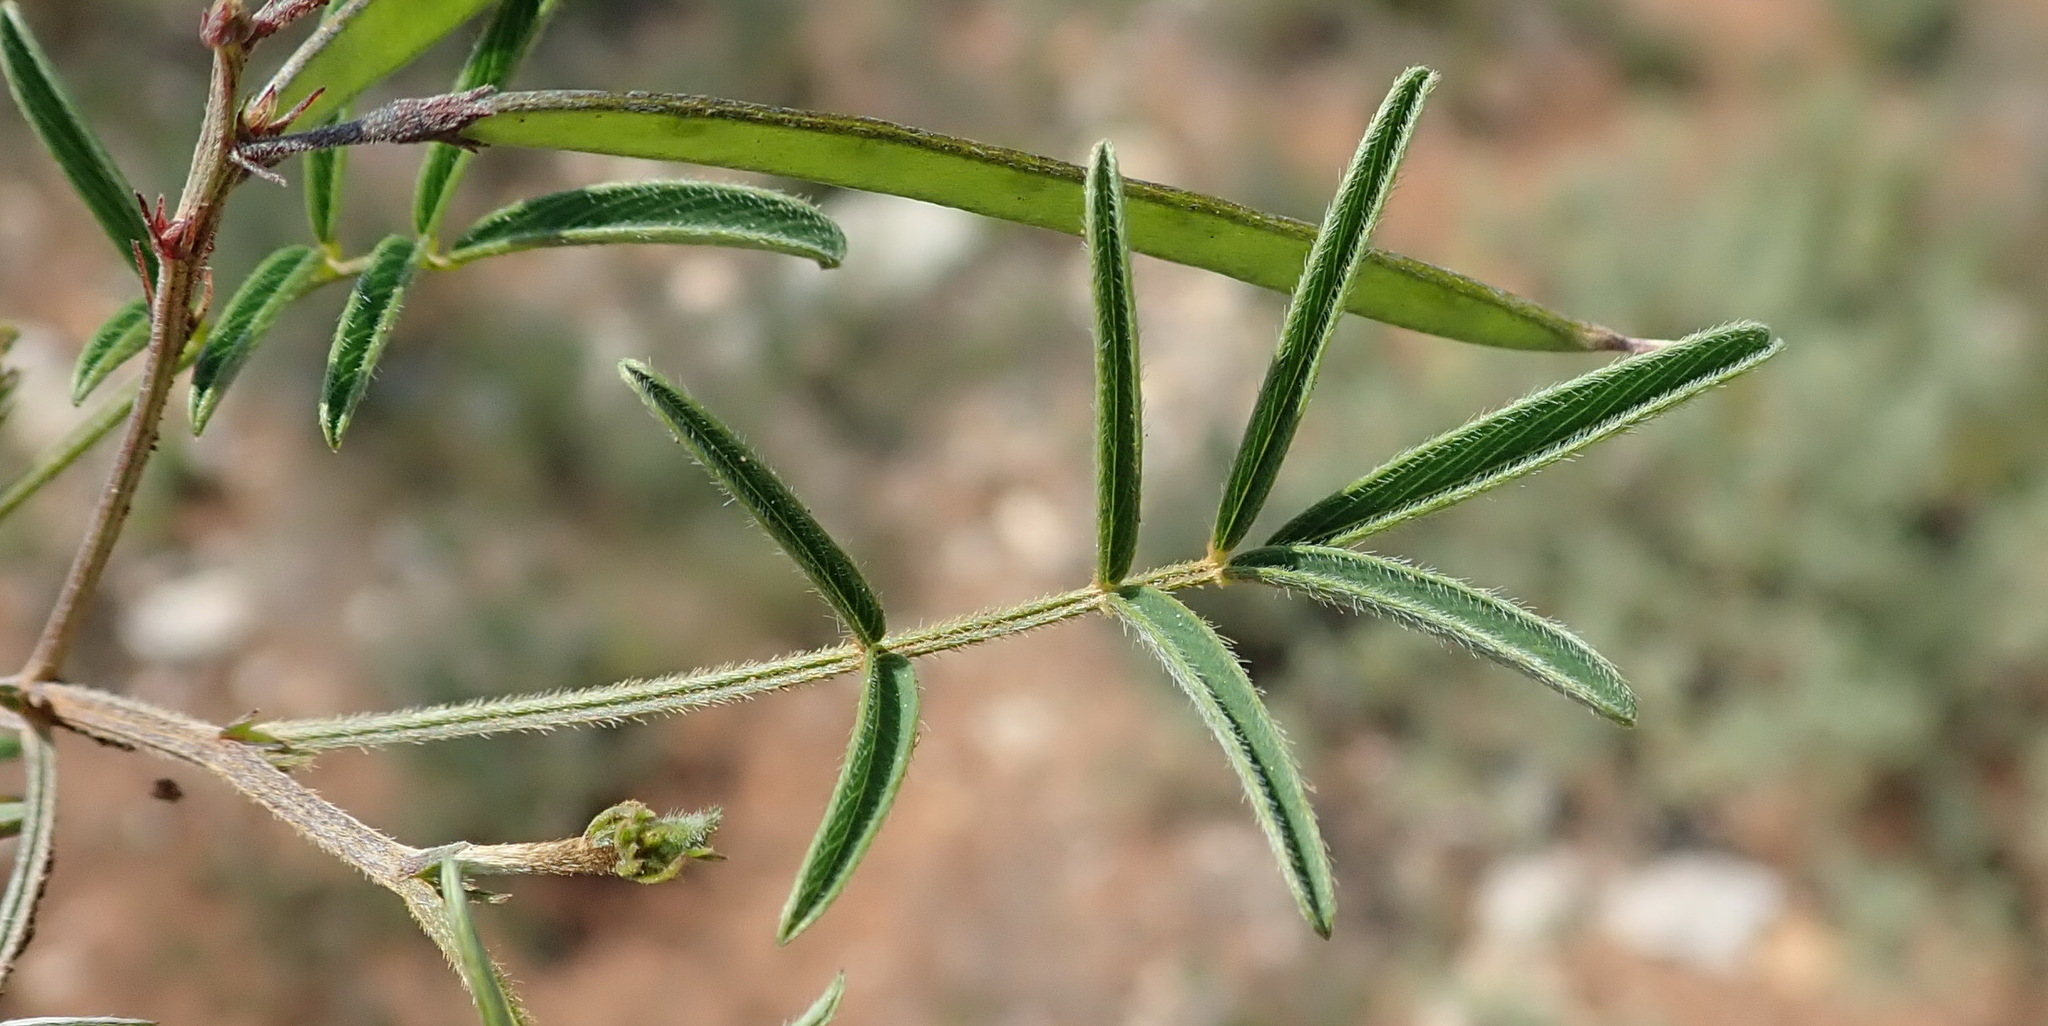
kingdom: Plantae
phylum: Tracheophyta
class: Magnoliopsida
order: Fabales
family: Fabaceae
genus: Tephrosia
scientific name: Tephrosia capensis
